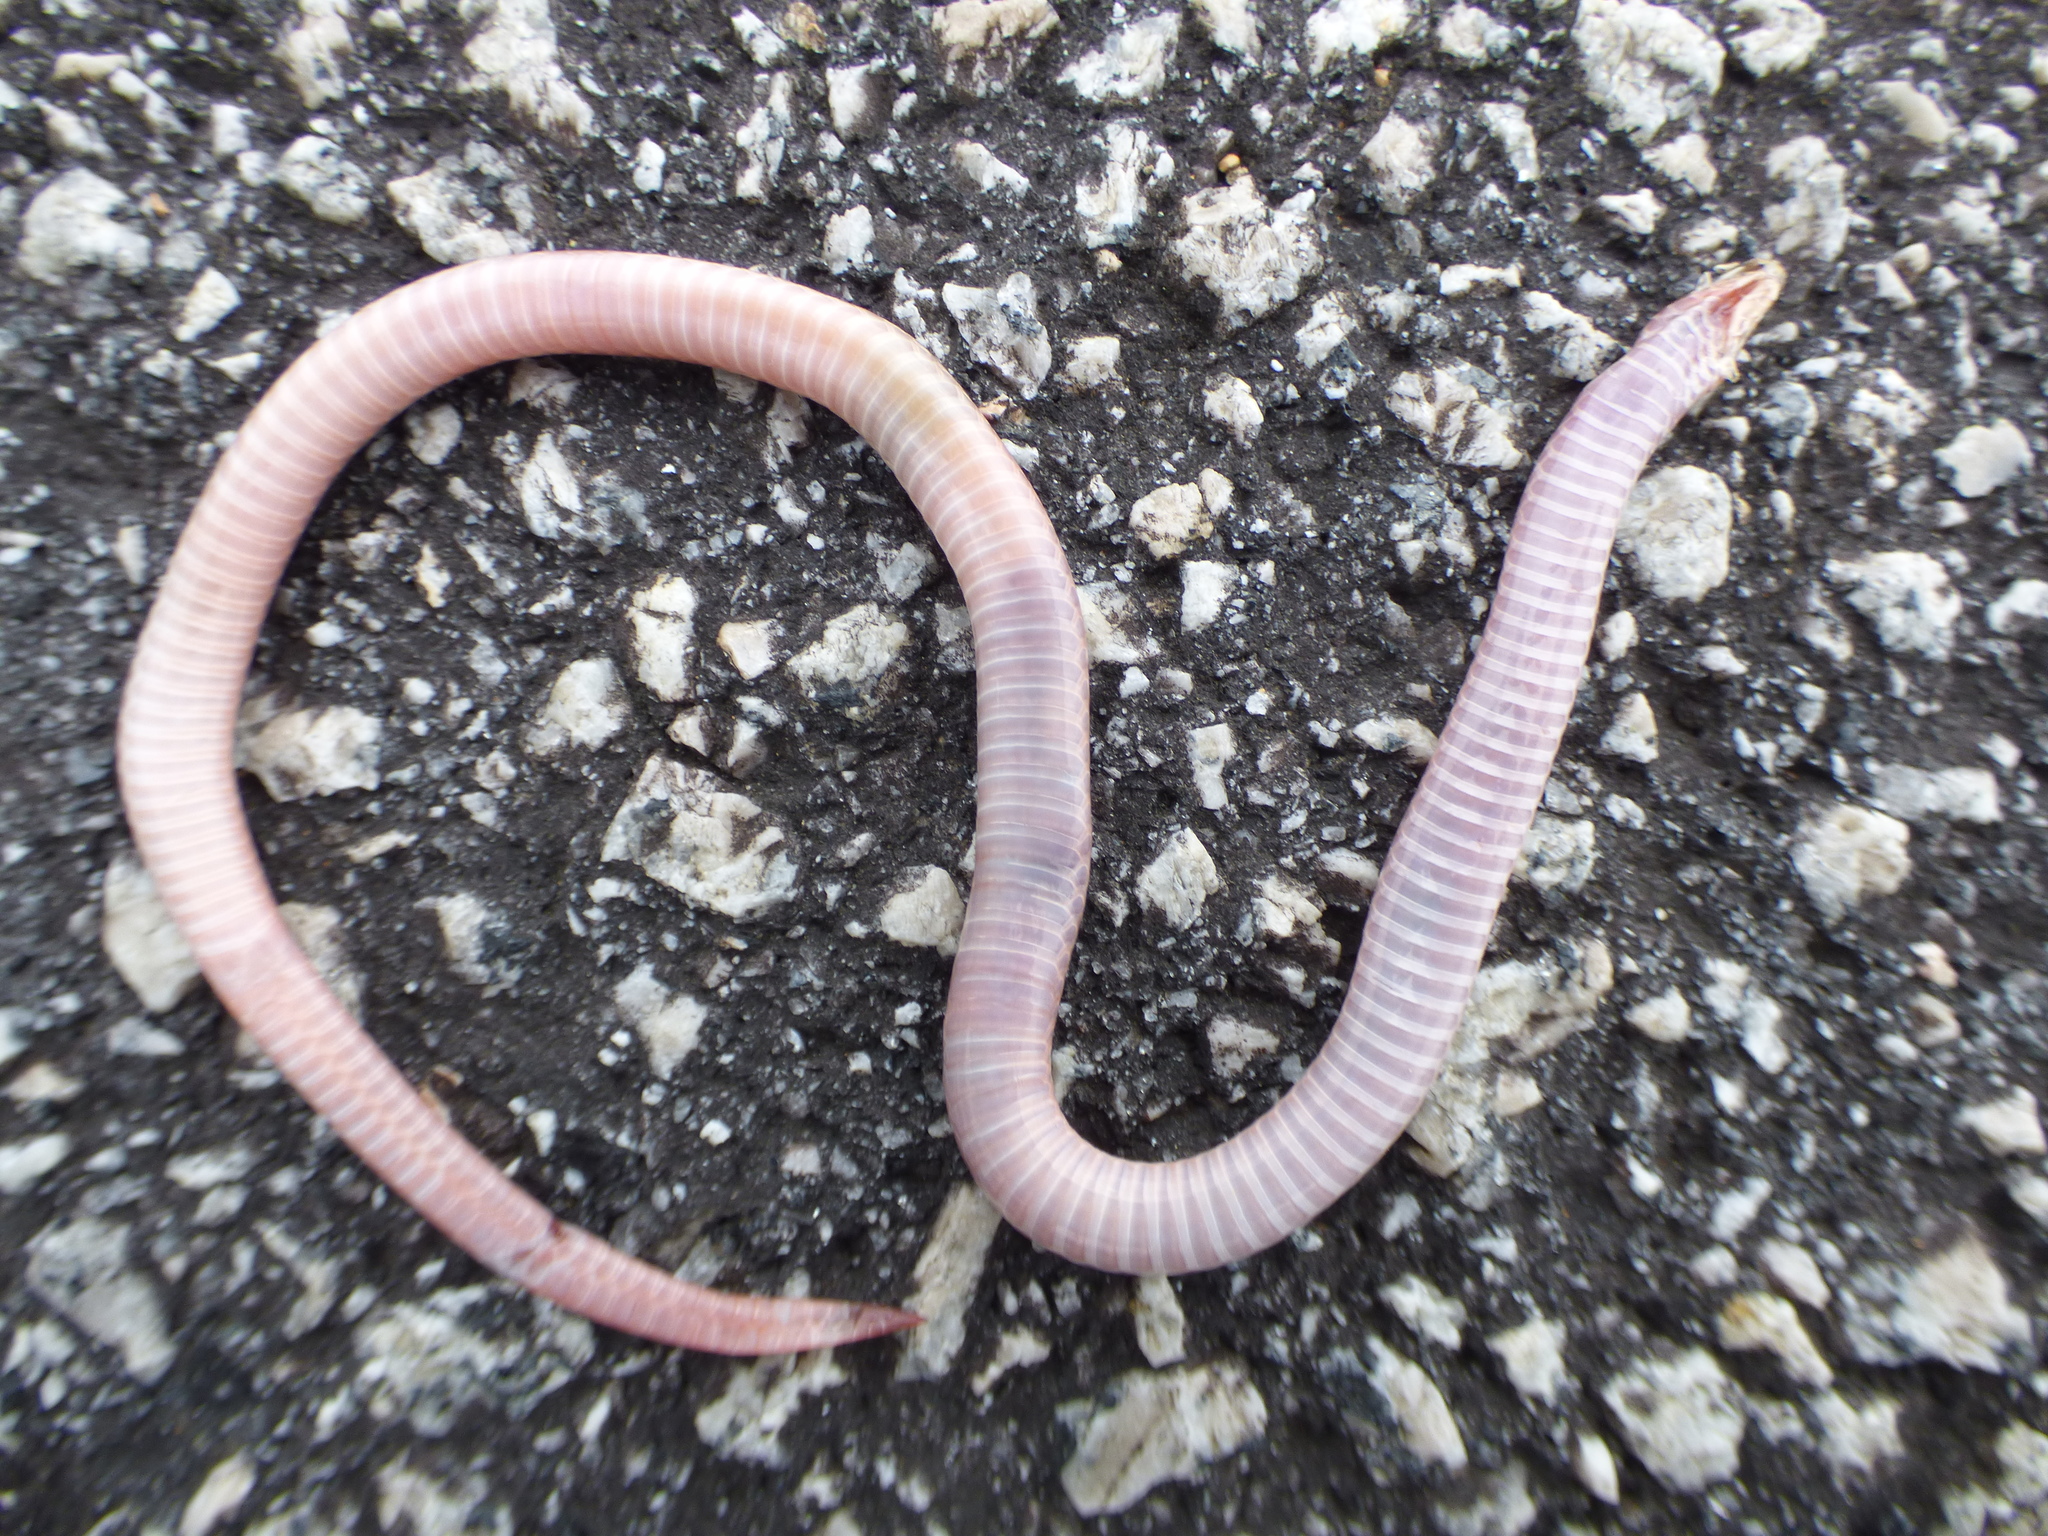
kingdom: Animalia
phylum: Chordata
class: Squamata
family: Colubridae
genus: Carphophis
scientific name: Carphophis amoenus
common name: Eastern worm snake
